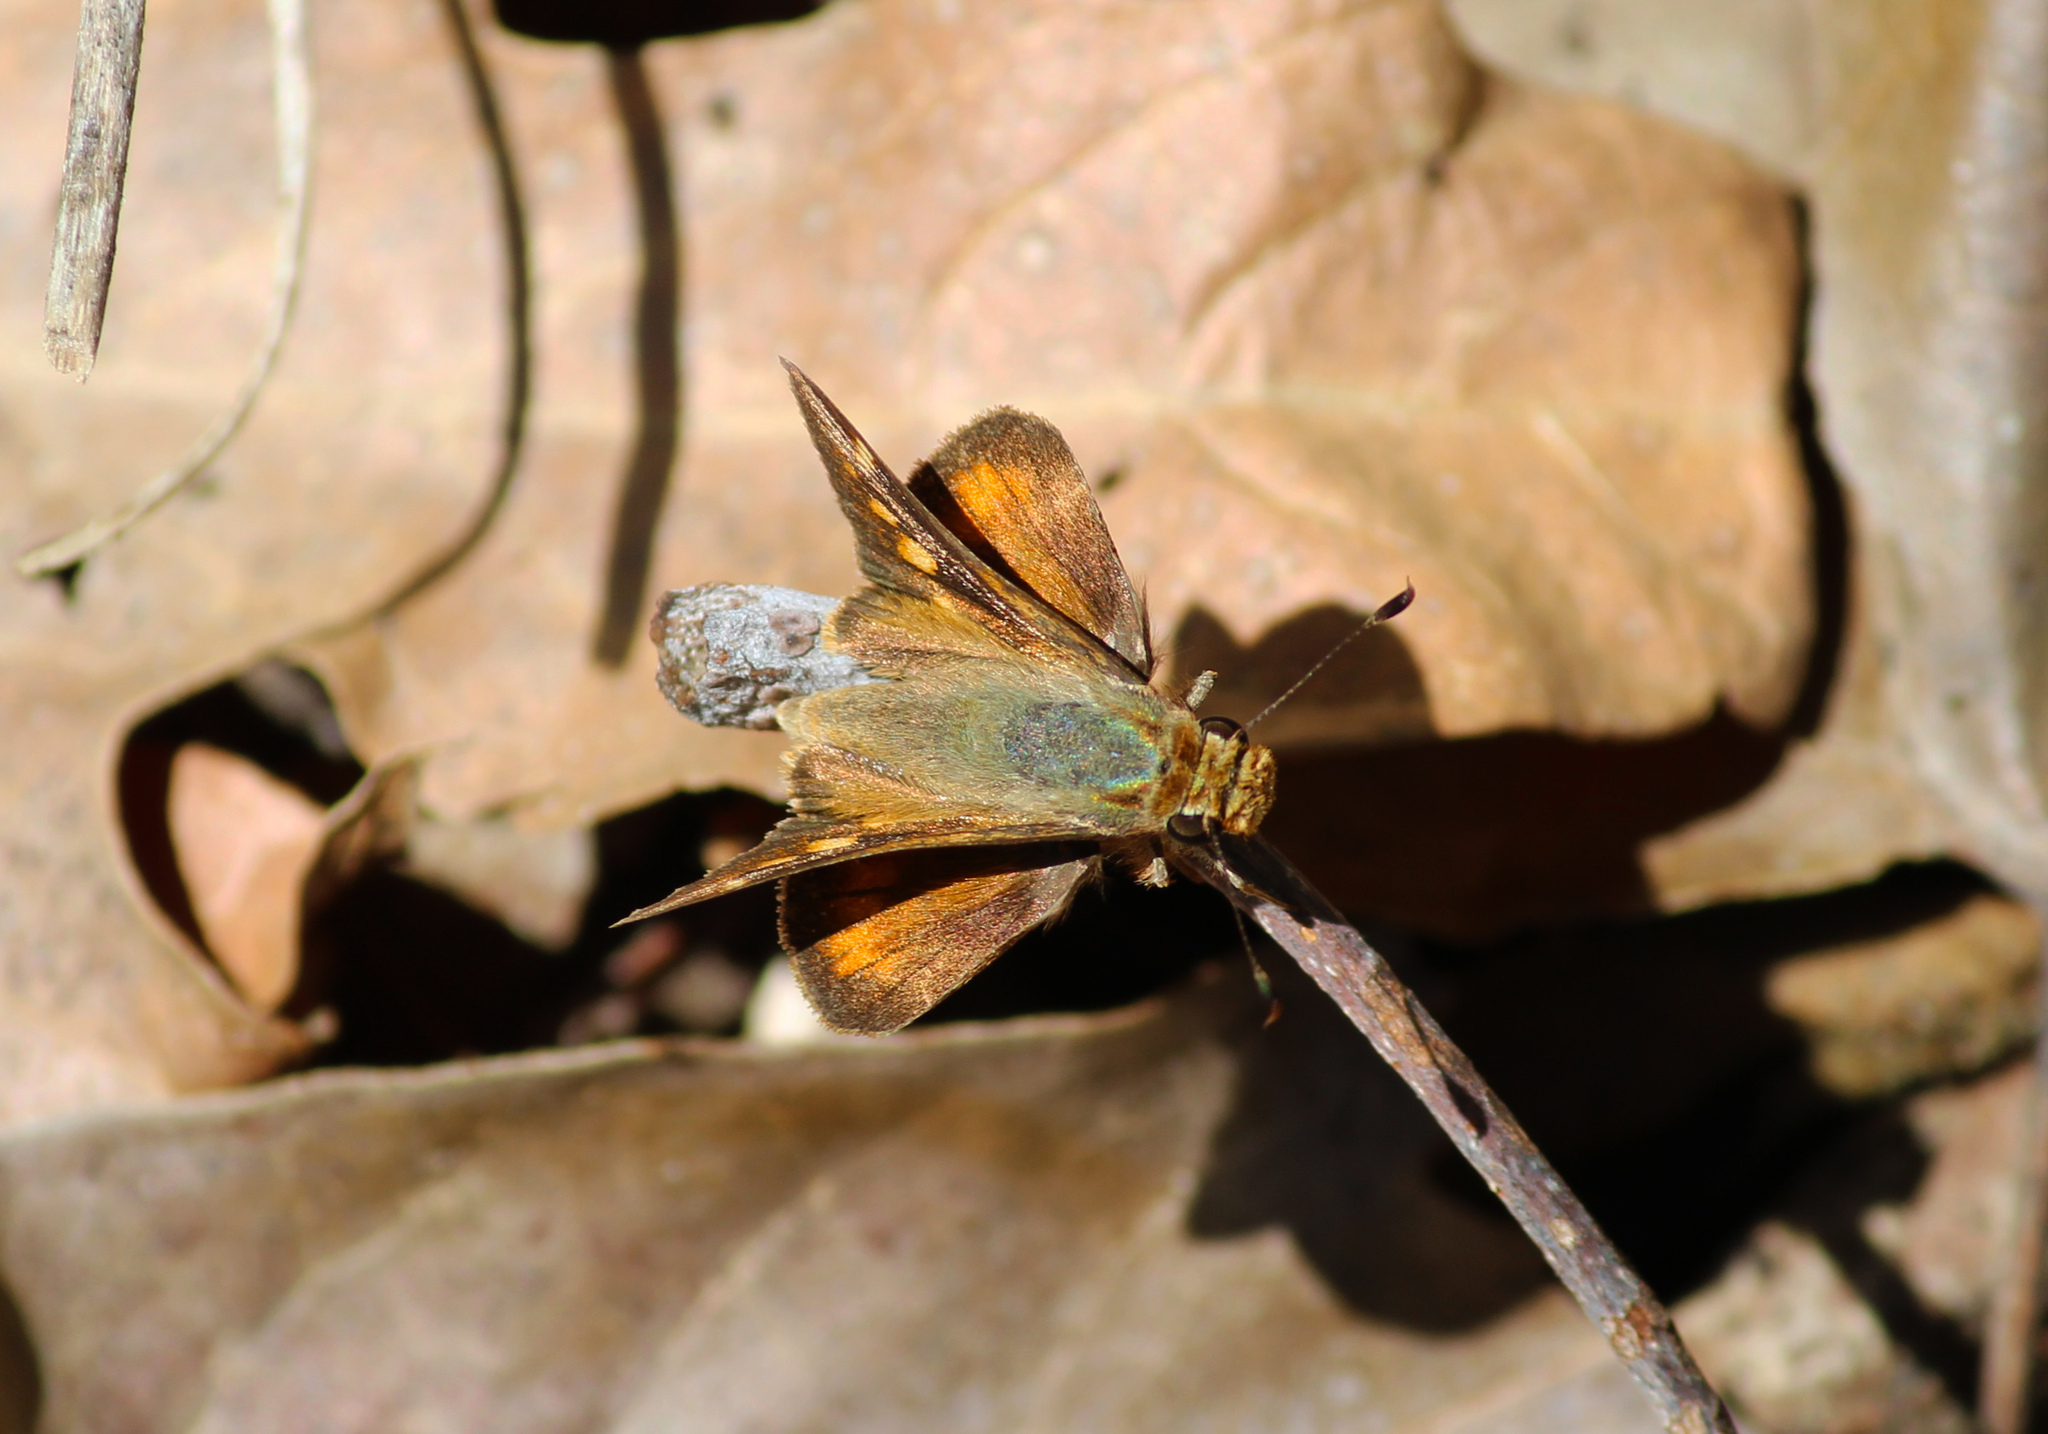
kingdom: Animalia
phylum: Arthropoda
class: Insecta
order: Lepidoptera
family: Hesperiidae
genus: Lon
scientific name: Lon melane
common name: Umber skipper
